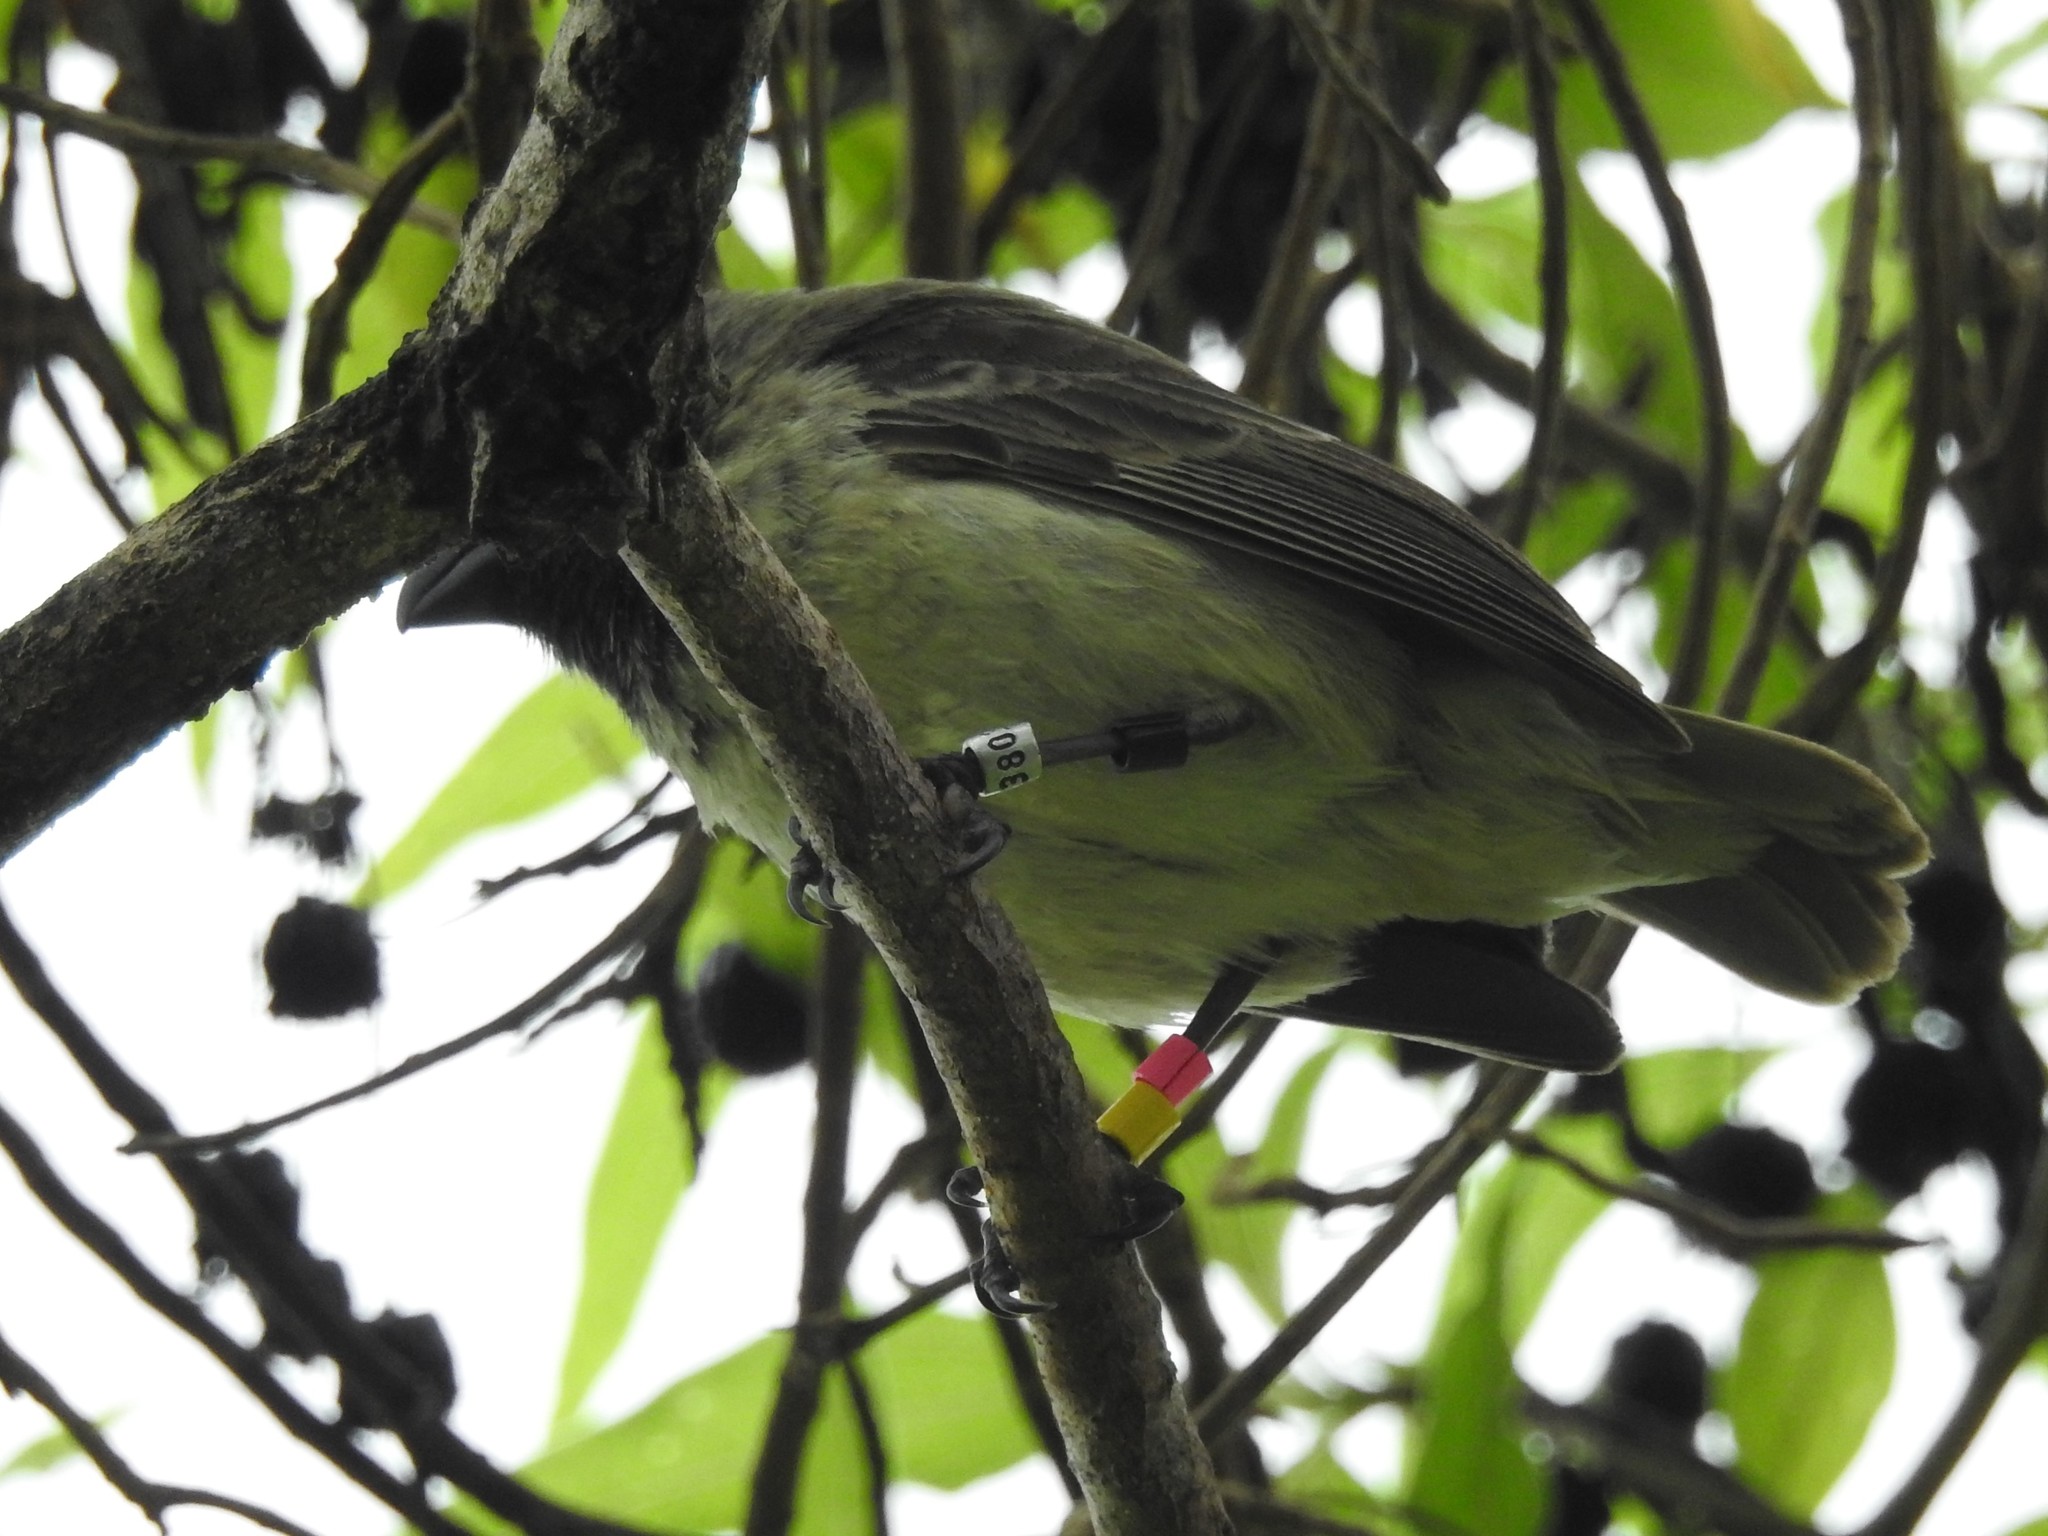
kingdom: Animalia
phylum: Chordata
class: Aves
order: Passeriformes
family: Thraupidae
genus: Camarhynchus
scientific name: Camarhynchus pauper
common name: Medium tree finch
